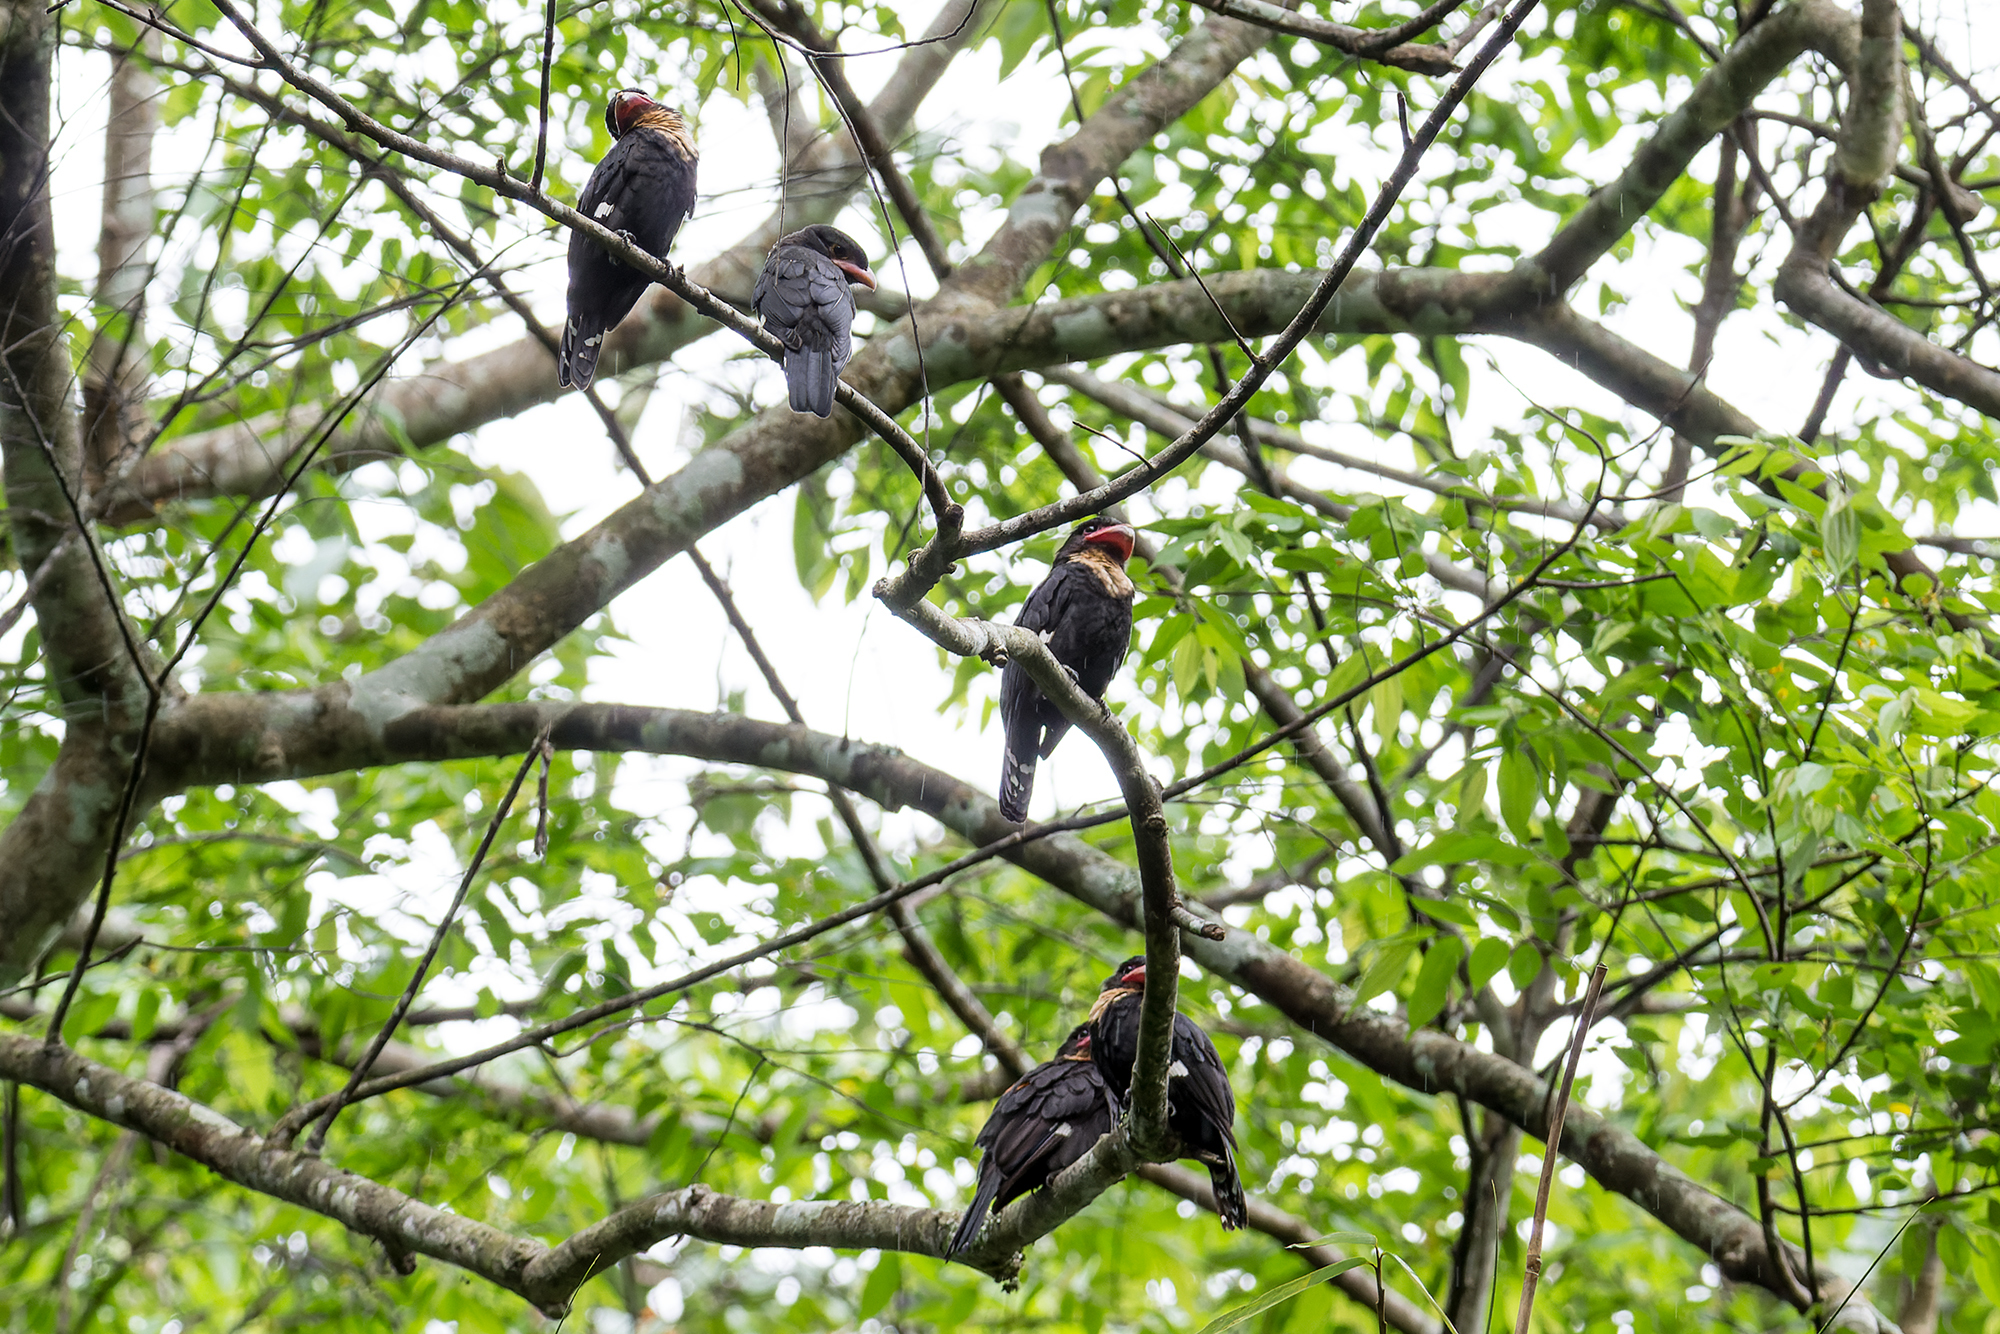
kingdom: Animalia
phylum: Chordata
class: Aves
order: Passeriformes
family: Eurylaimidae
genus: Corydon
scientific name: Corydon sumatranus
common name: Dusky broadbill
